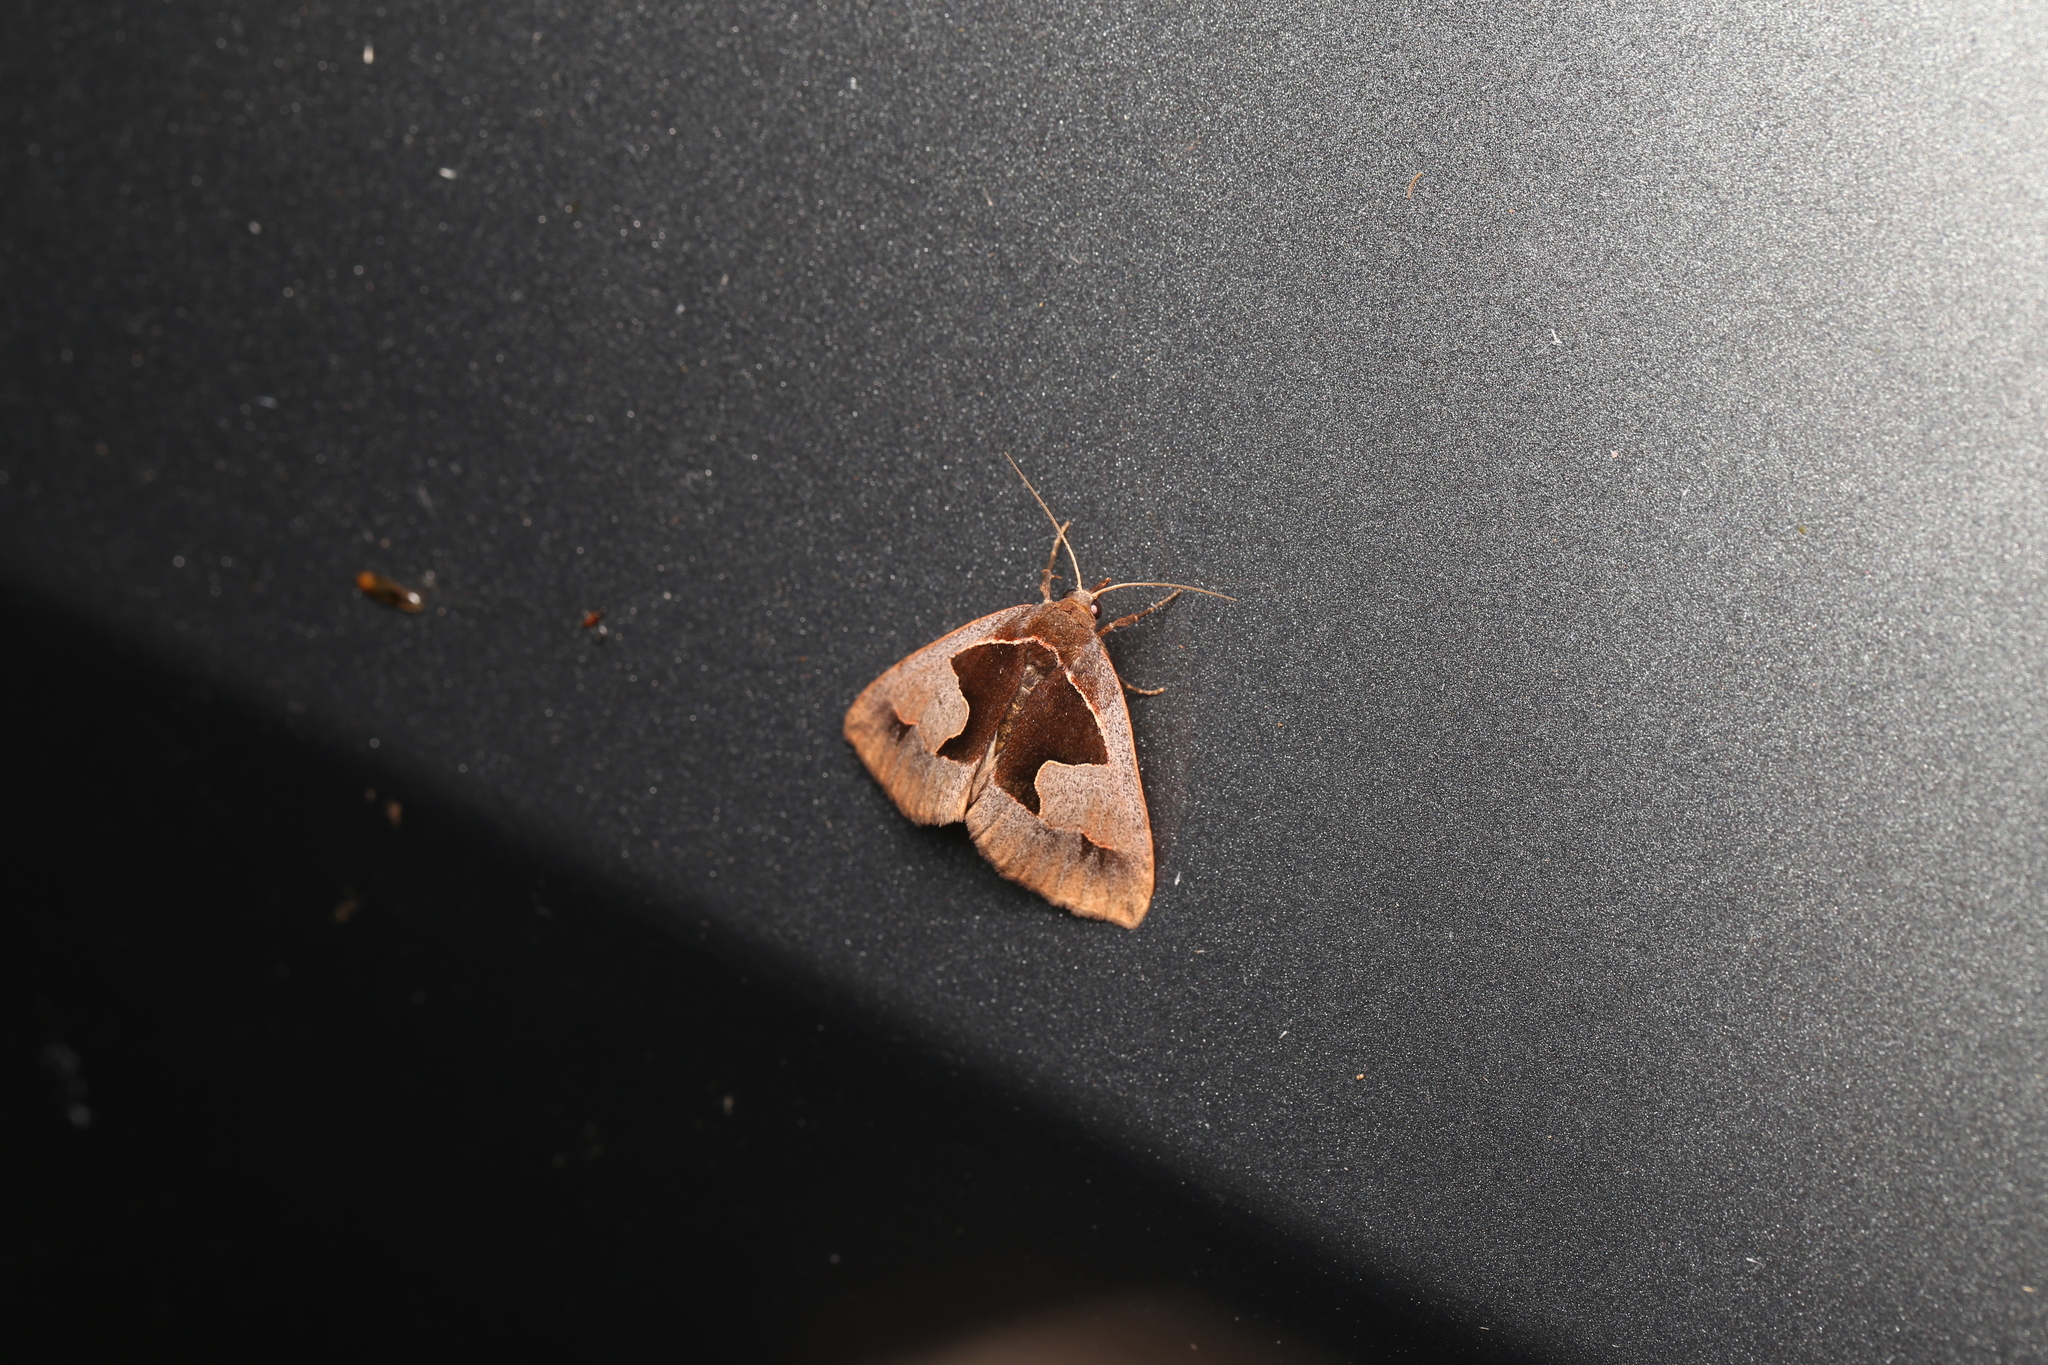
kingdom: Animalia
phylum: Arthropoda
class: Insecta
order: Lepidoptera
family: Erebidae
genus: Agamana
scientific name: Agamana cavatalis
